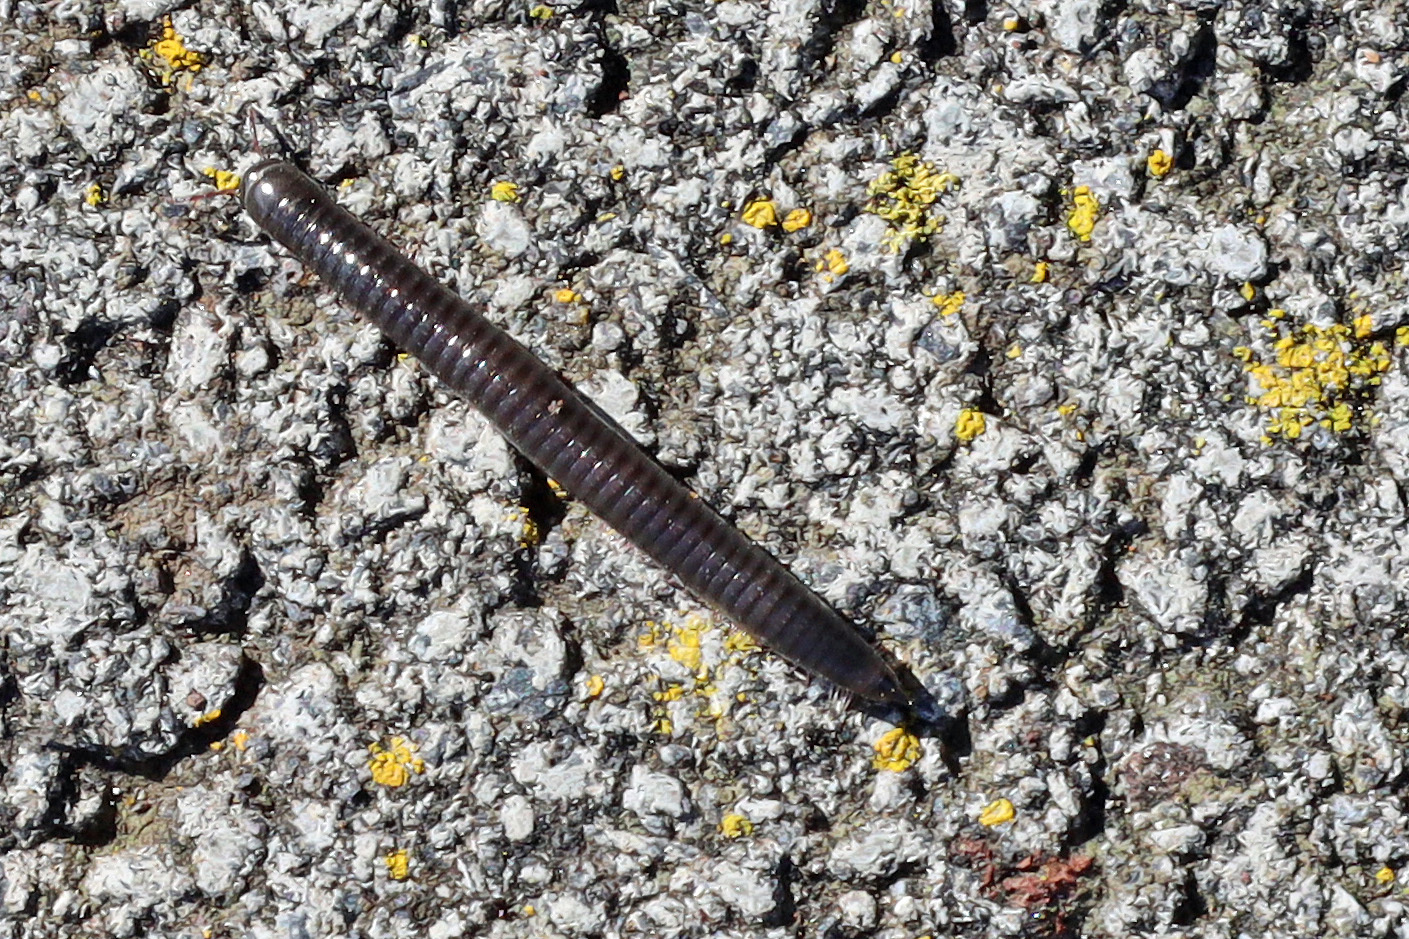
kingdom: Animalia
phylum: Arthropoda
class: Diplopoda
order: Julida
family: Julidae
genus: Ommatoiulus
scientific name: Ommatoiulus moreleti
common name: Portuguese millipede
